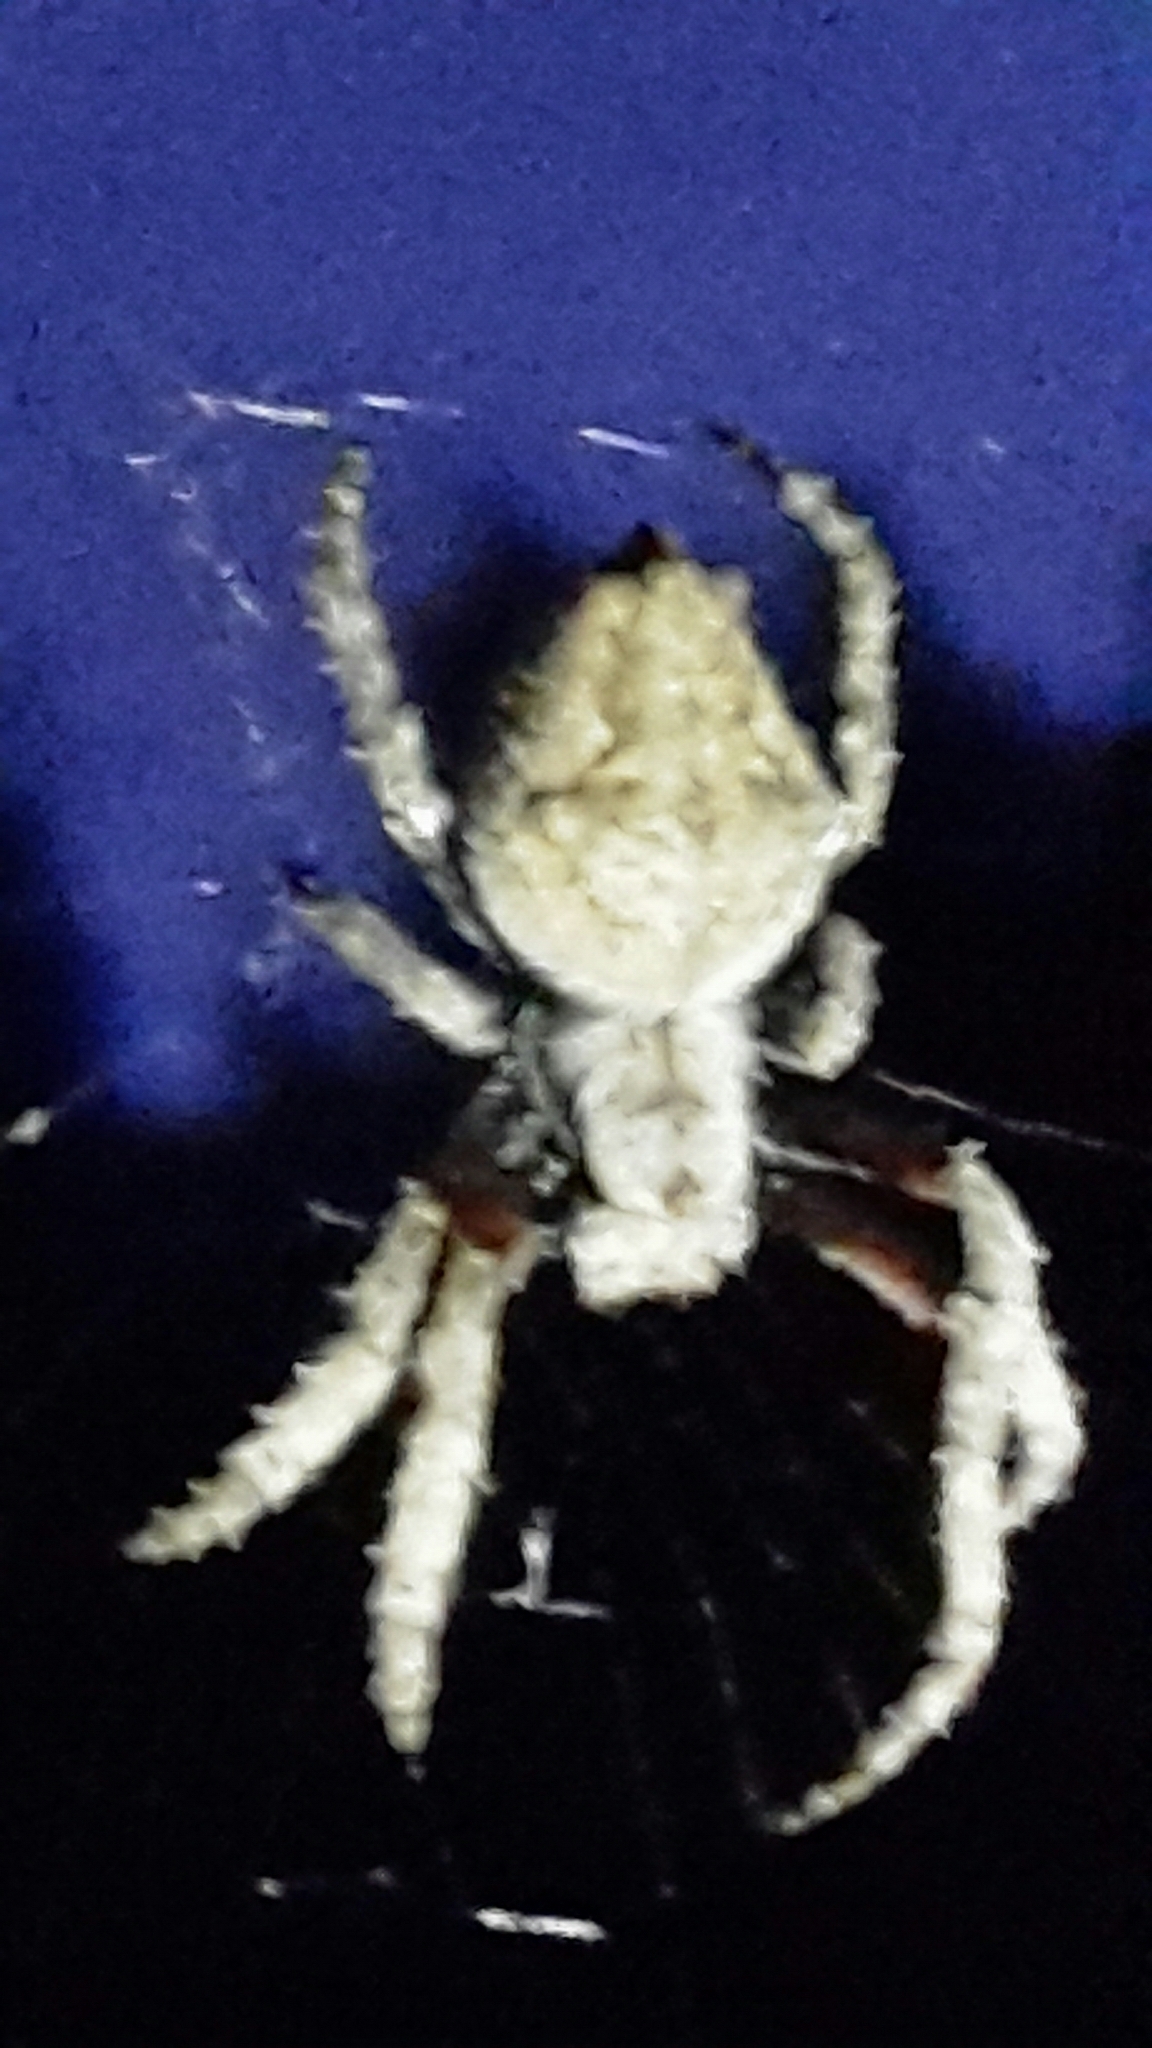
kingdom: Animalia
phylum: Arthropoda
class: Arachnida
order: Araneae
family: Araneidae
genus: Eriophora
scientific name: Eriophora pustulosa
